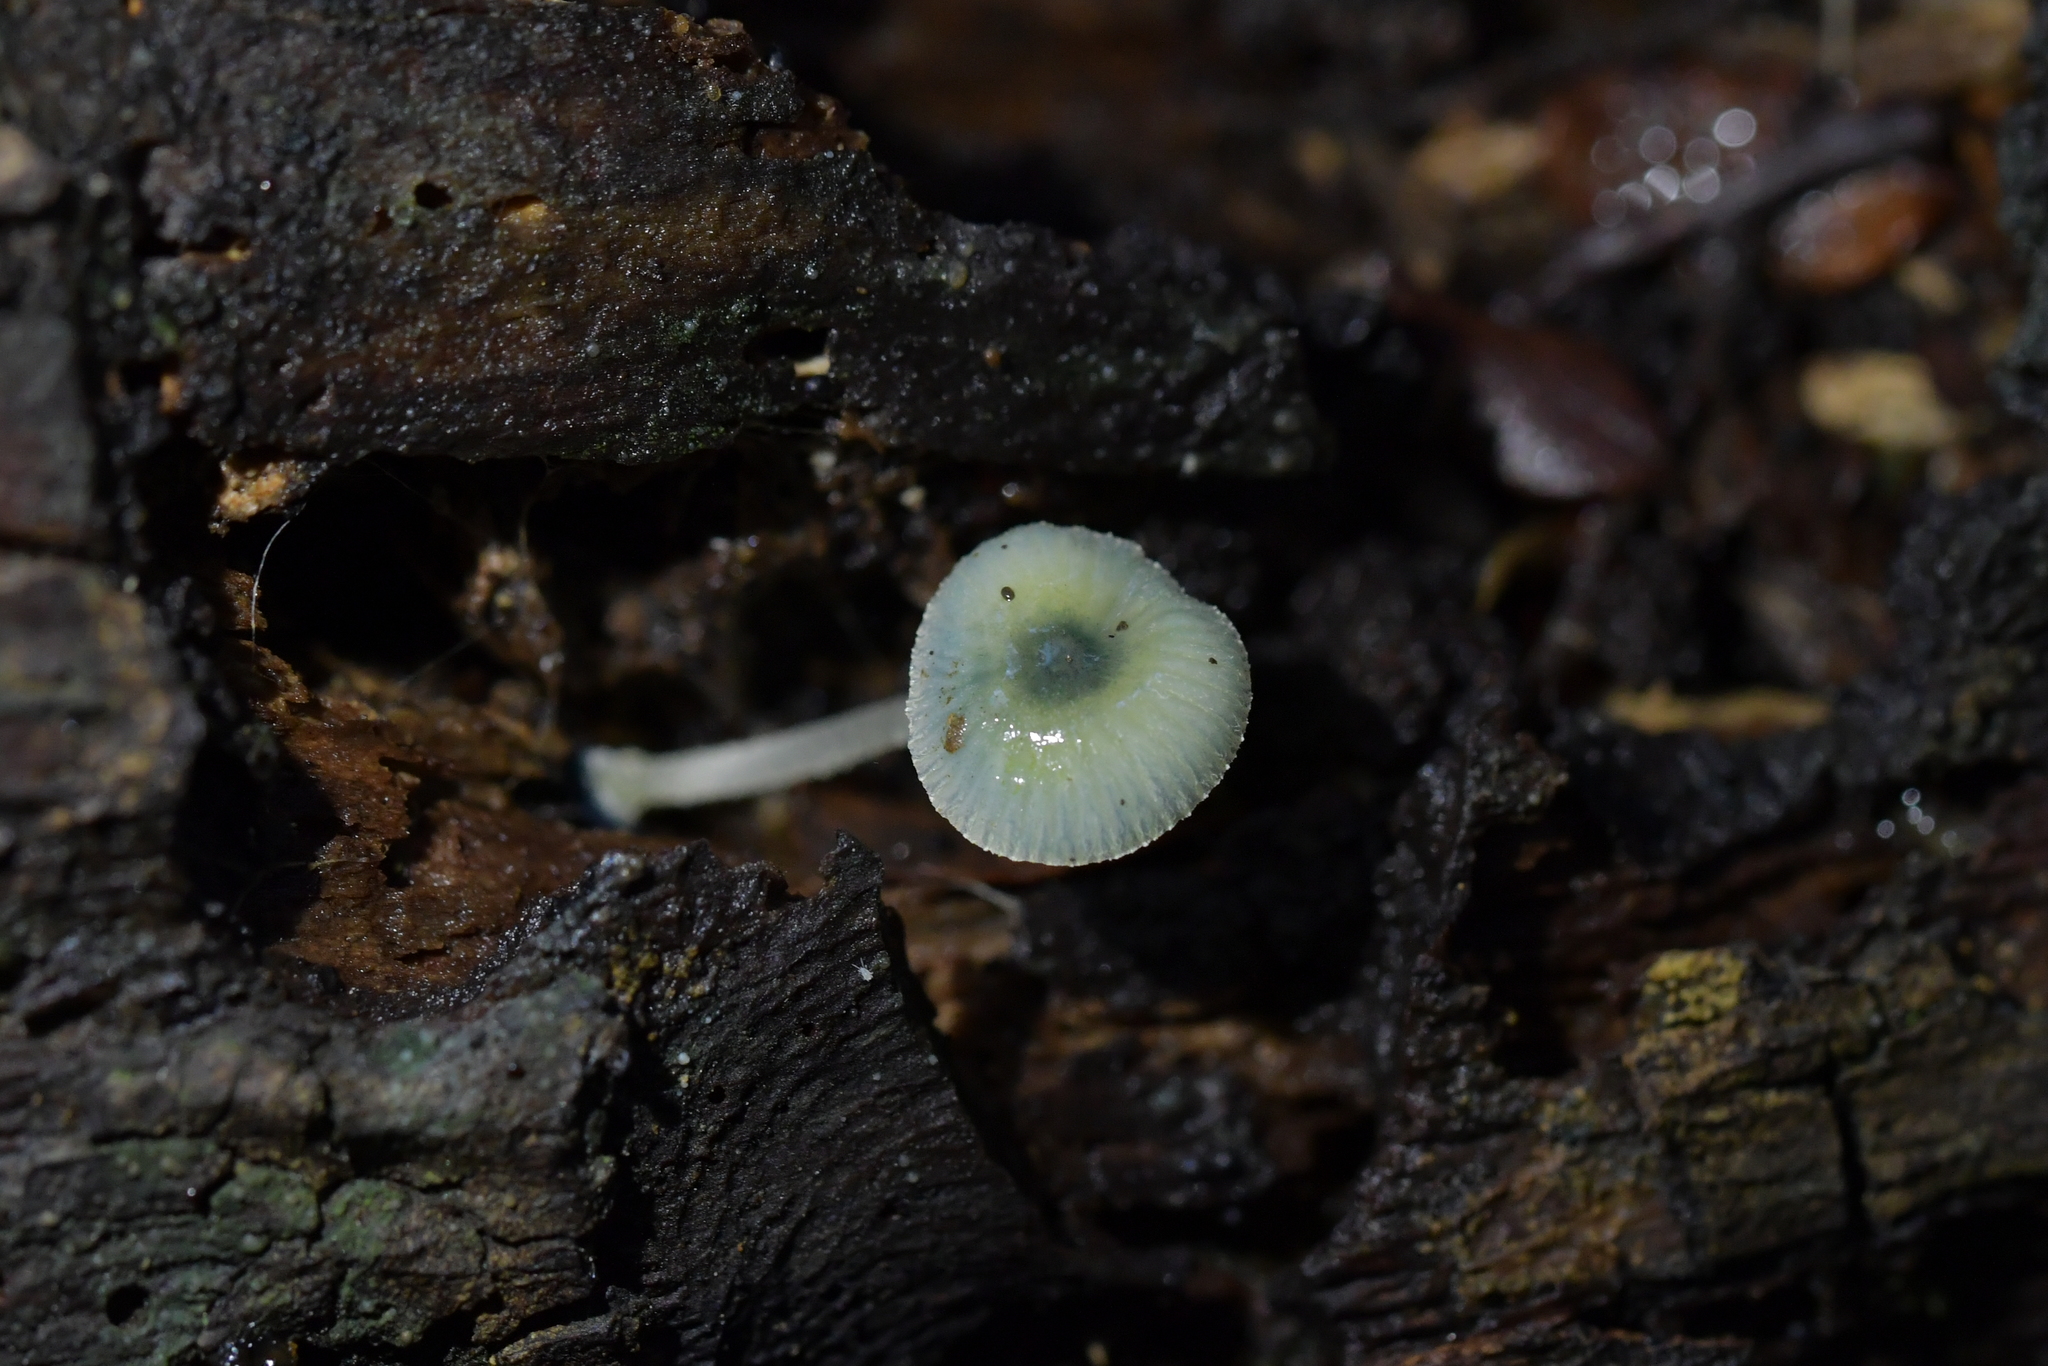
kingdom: Fungi
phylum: Basidiomycota
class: Agaricomycetes
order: Agaricales
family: Mycenaceae
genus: Mycena
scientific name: Mycena interrupta
